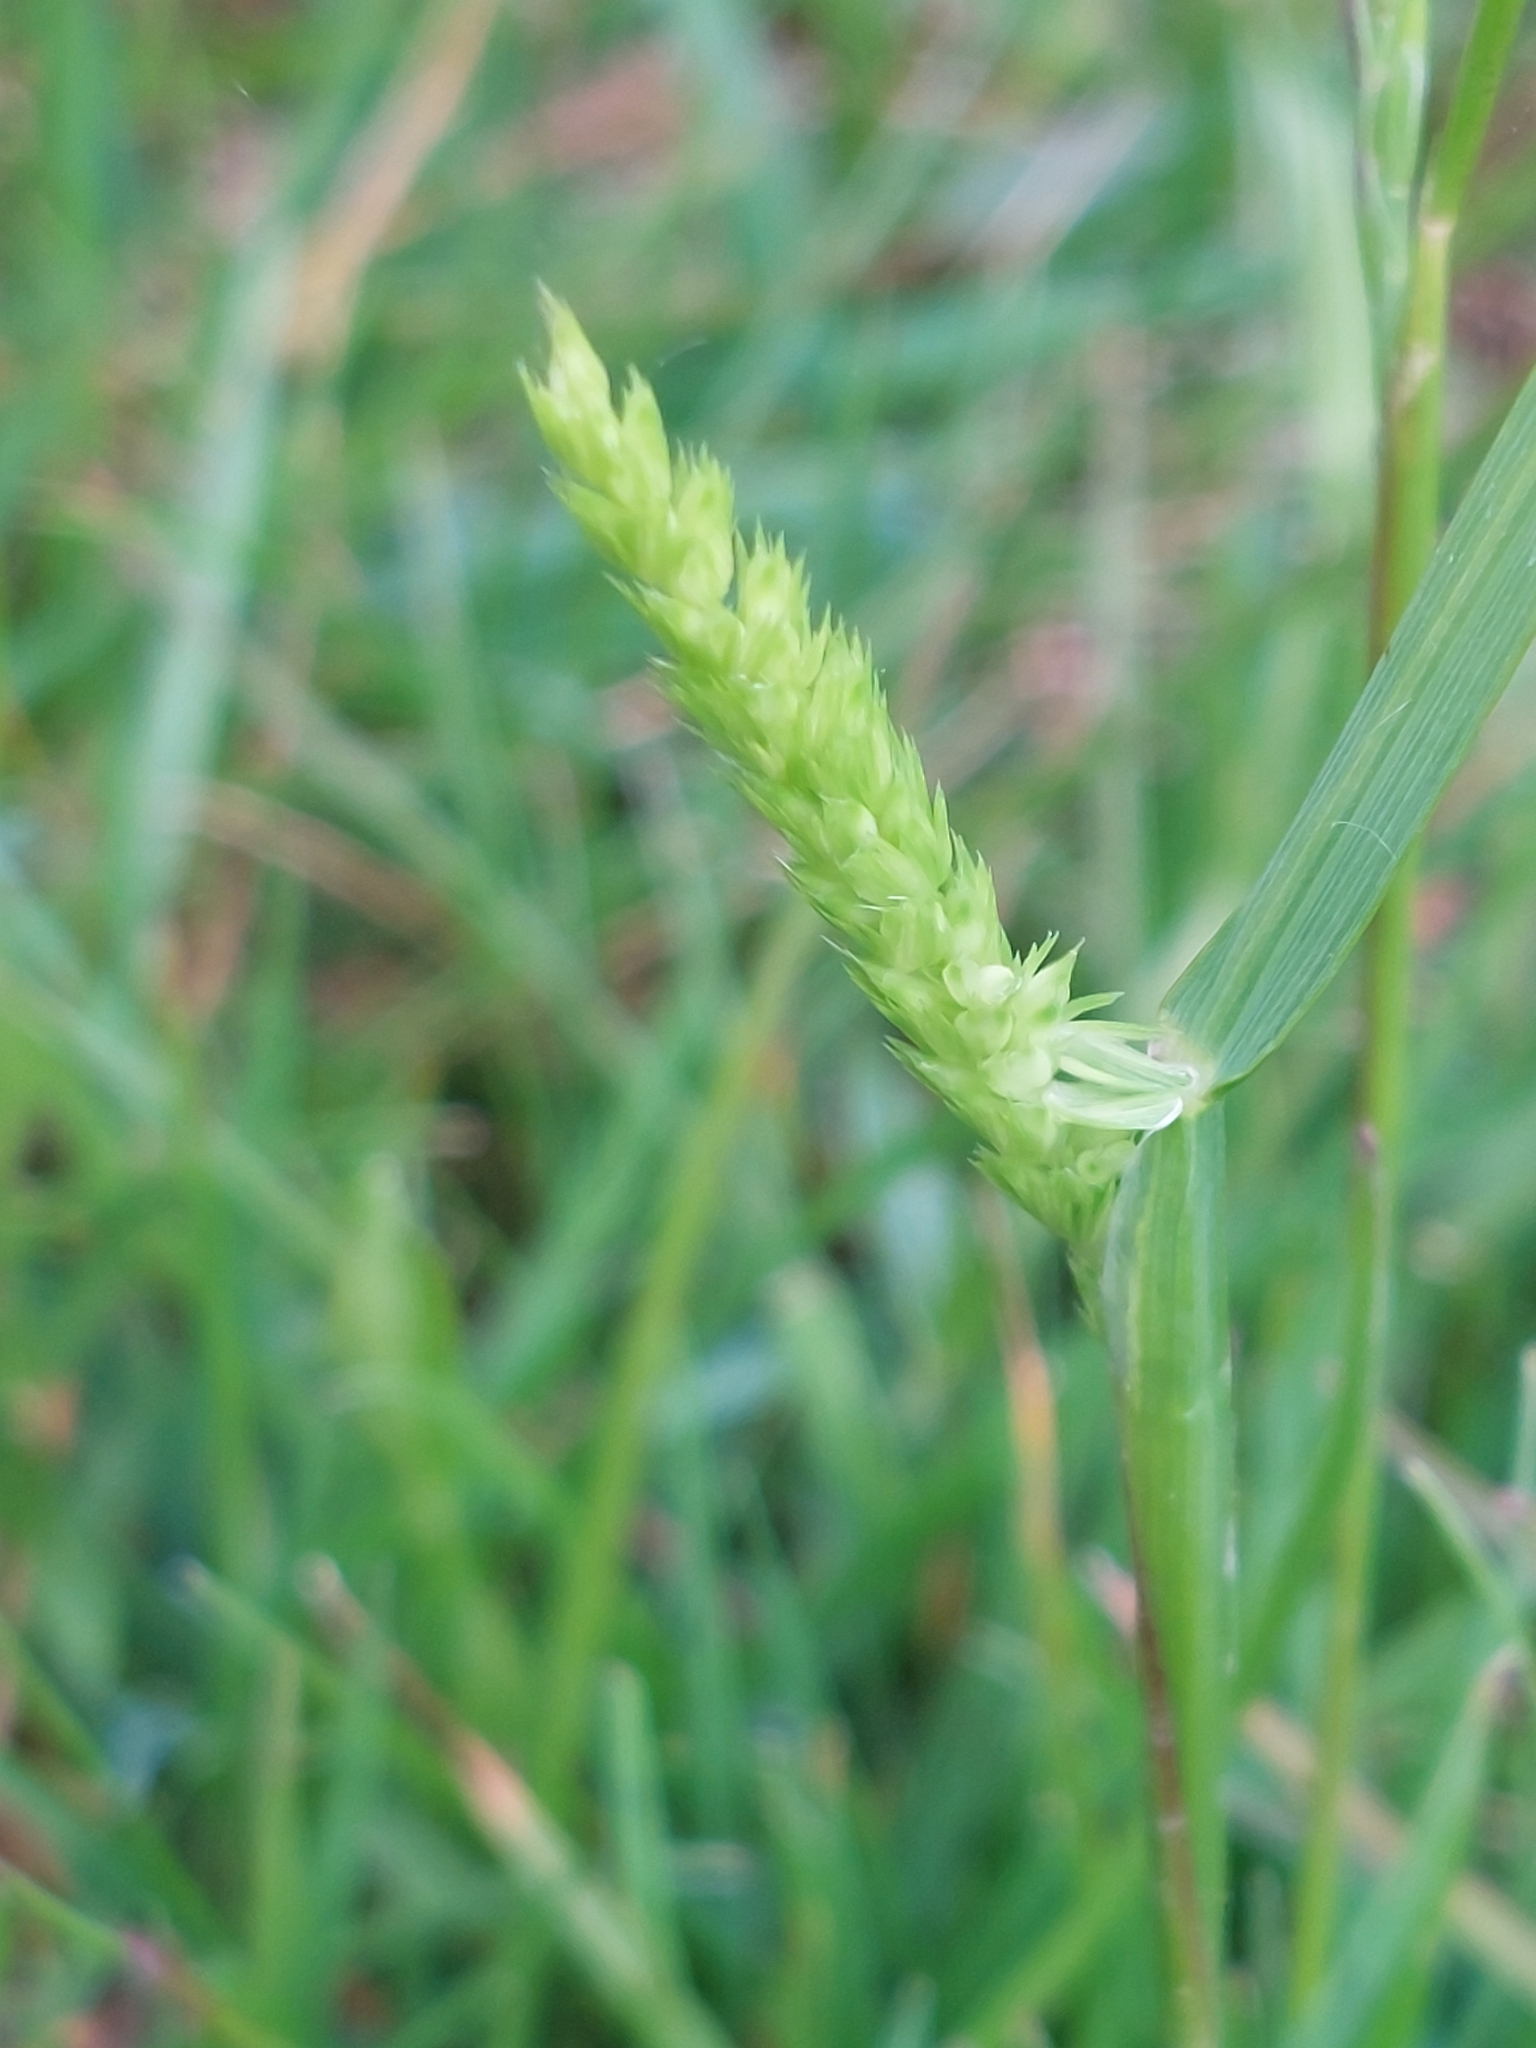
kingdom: Plantae
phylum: Tracheophyta
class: Liliopsida
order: Poales
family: Poaceae
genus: Cynosurus
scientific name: Cynosurus cristatus
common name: Crested dog's-tail
